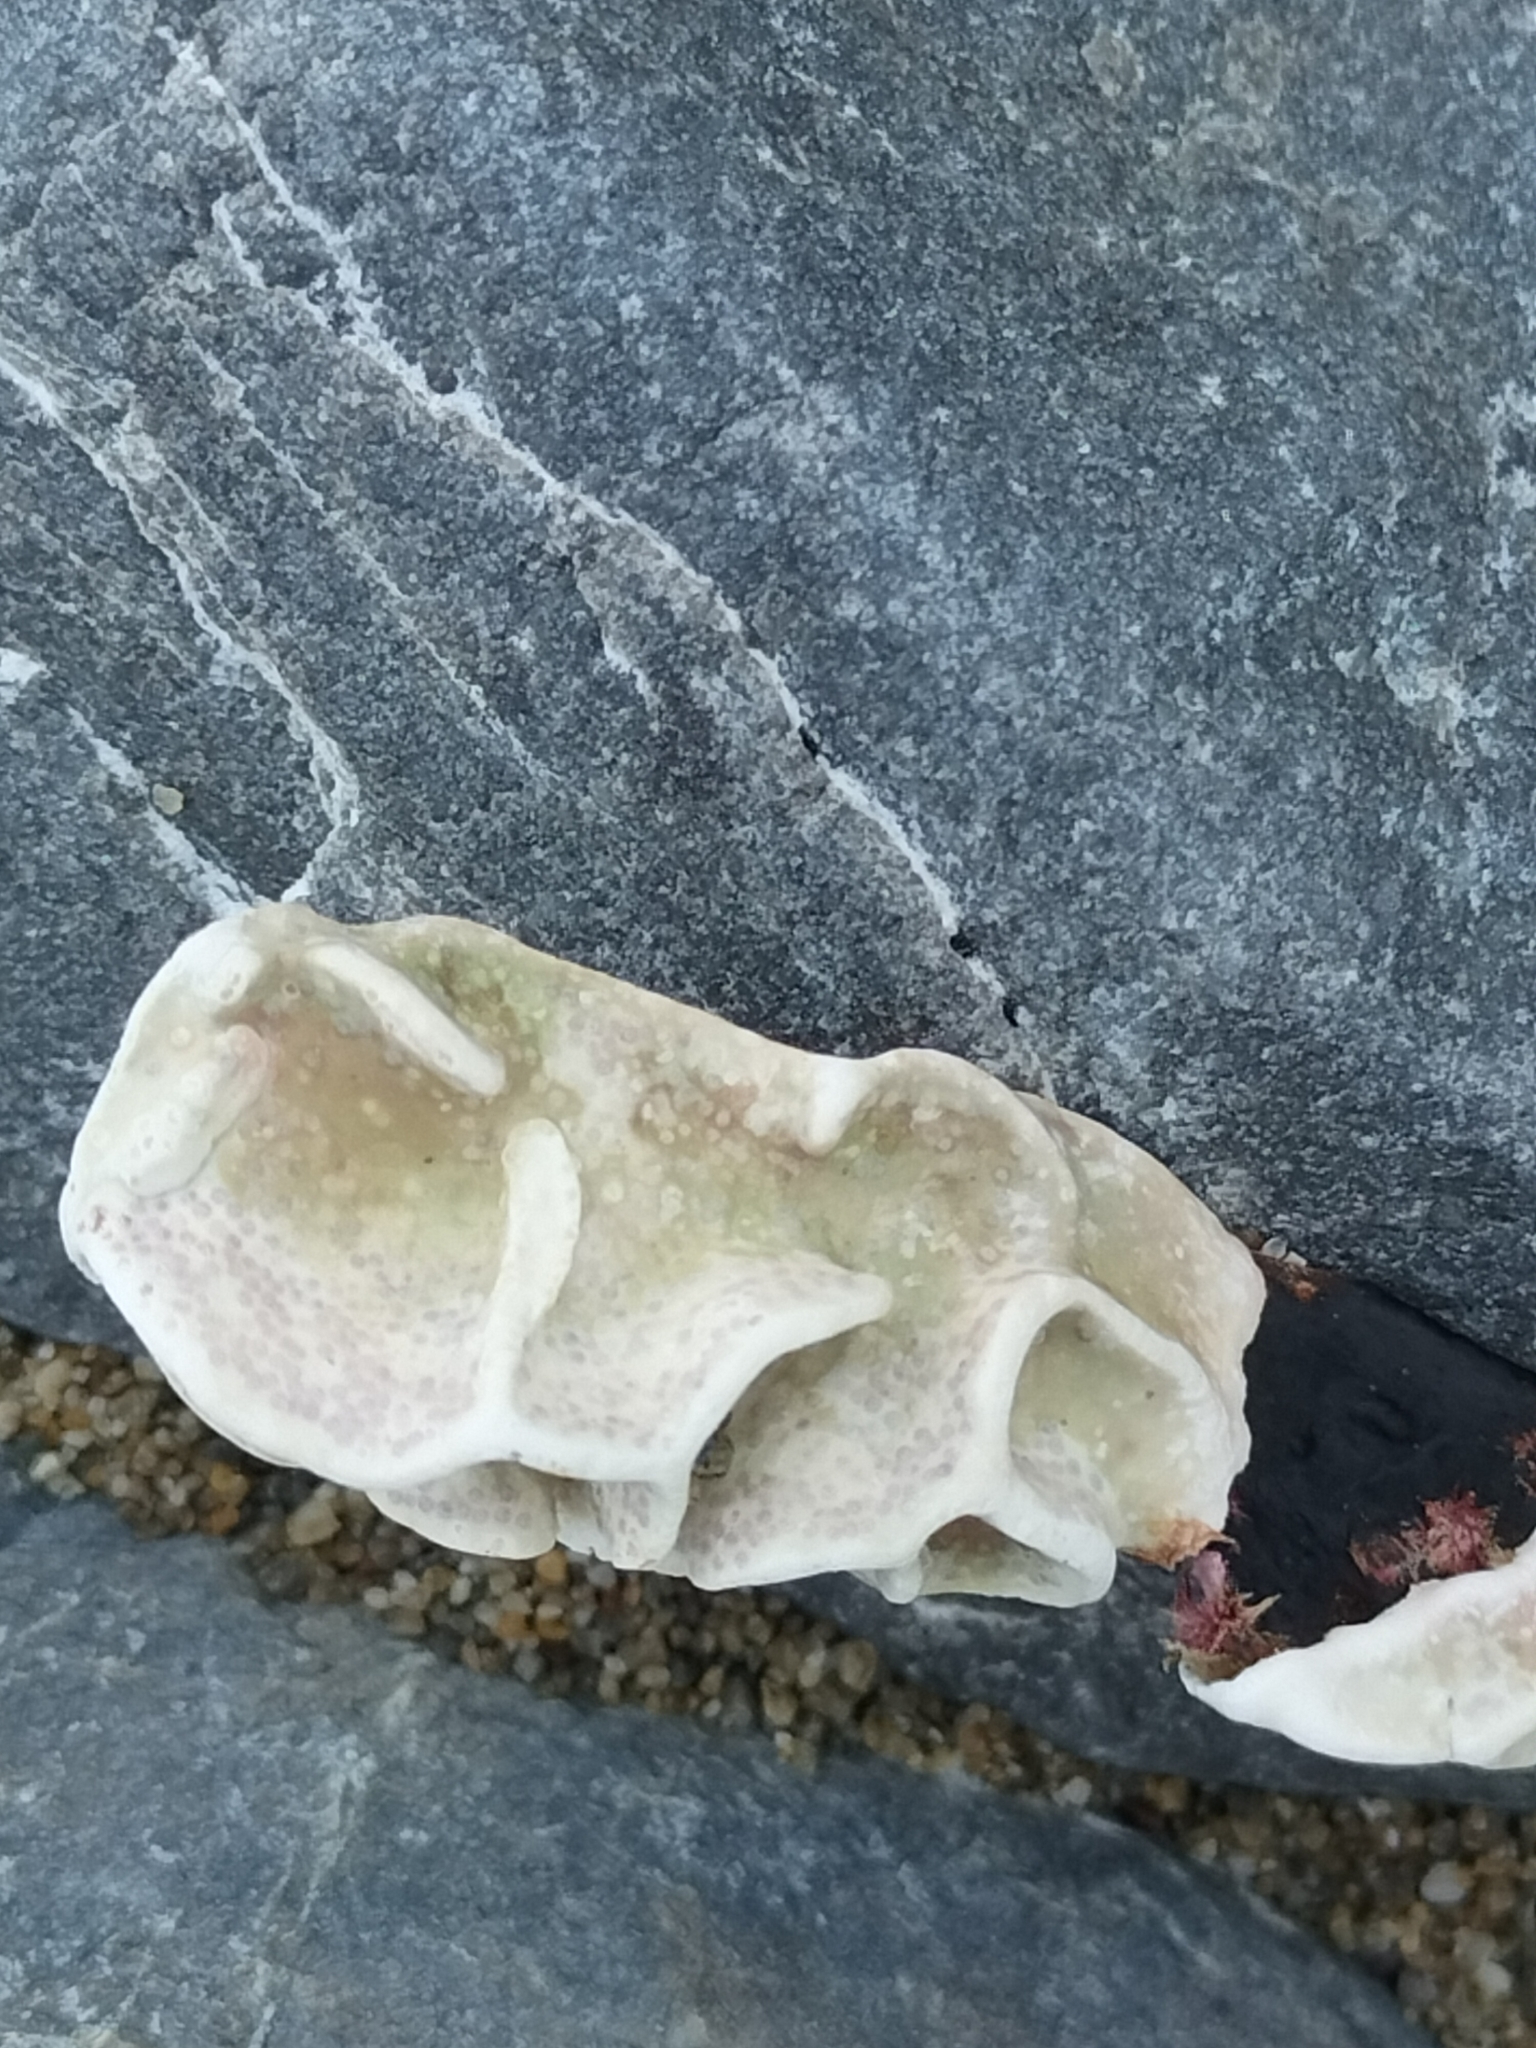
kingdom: Plantae
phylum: Rhodophyta
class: Florideophyceae
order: Corallinales
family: Lithophyllaceae
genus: Lithophyllum
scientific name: Lithophyllum carpophylli
